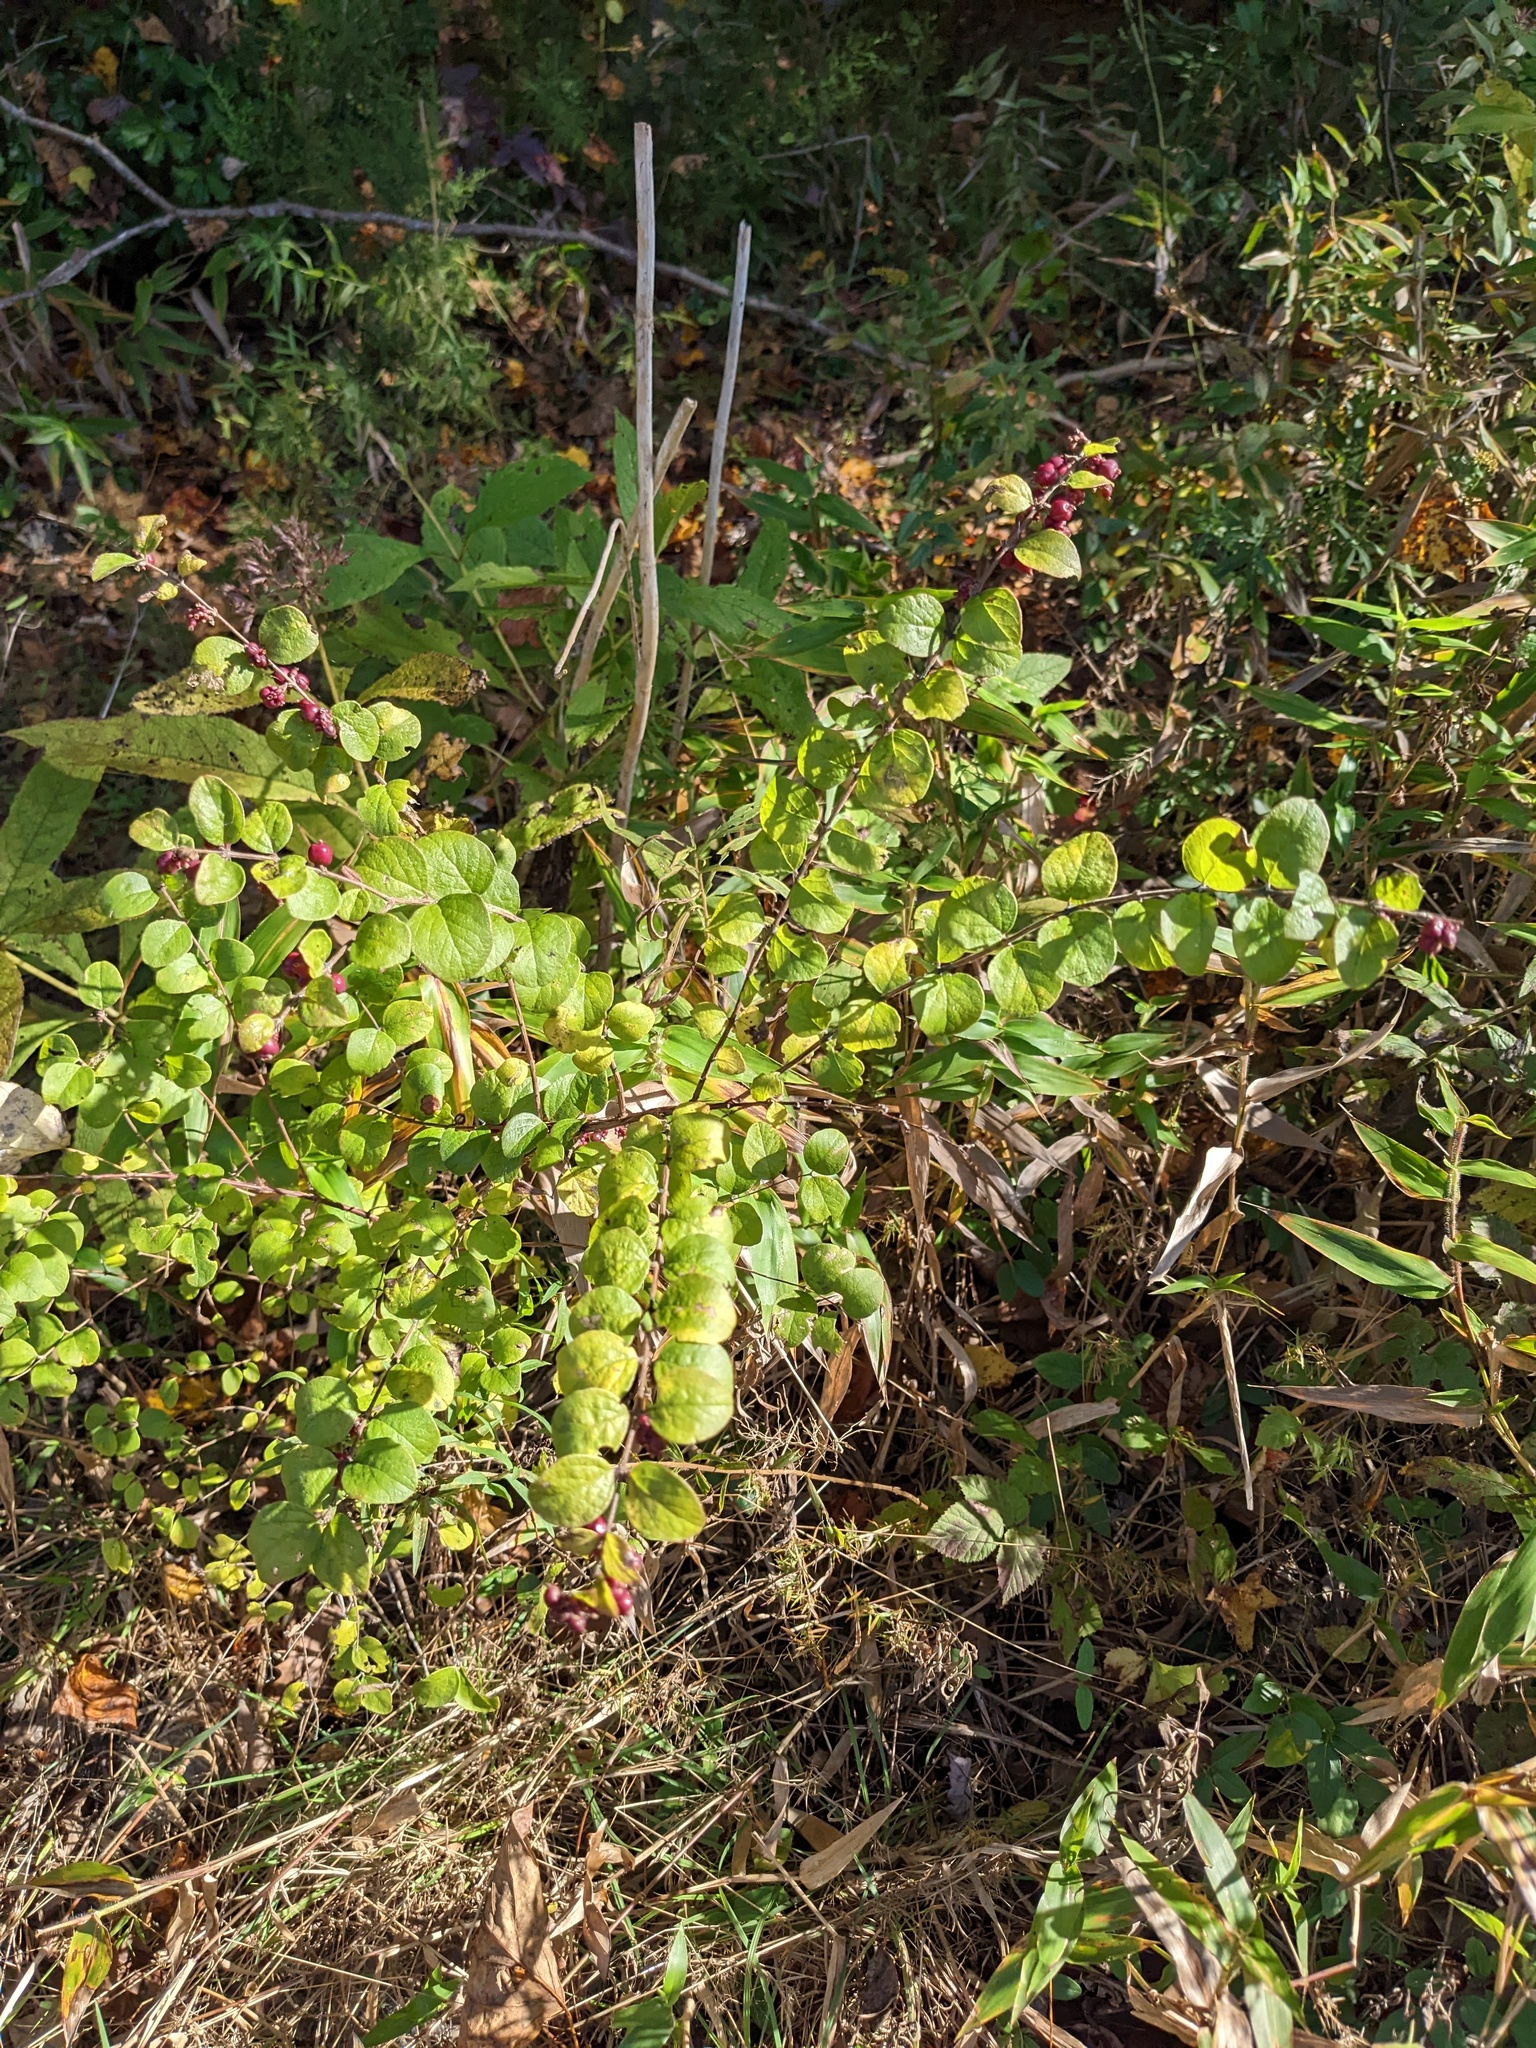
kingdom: Plantae
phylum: Tracheophyta
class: Magnoliopsida
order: Dipsacales
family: Caprifoliaceae
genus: Symphoricarpos
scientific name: Symphoricarpos orbiculatus
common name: Coralberry
